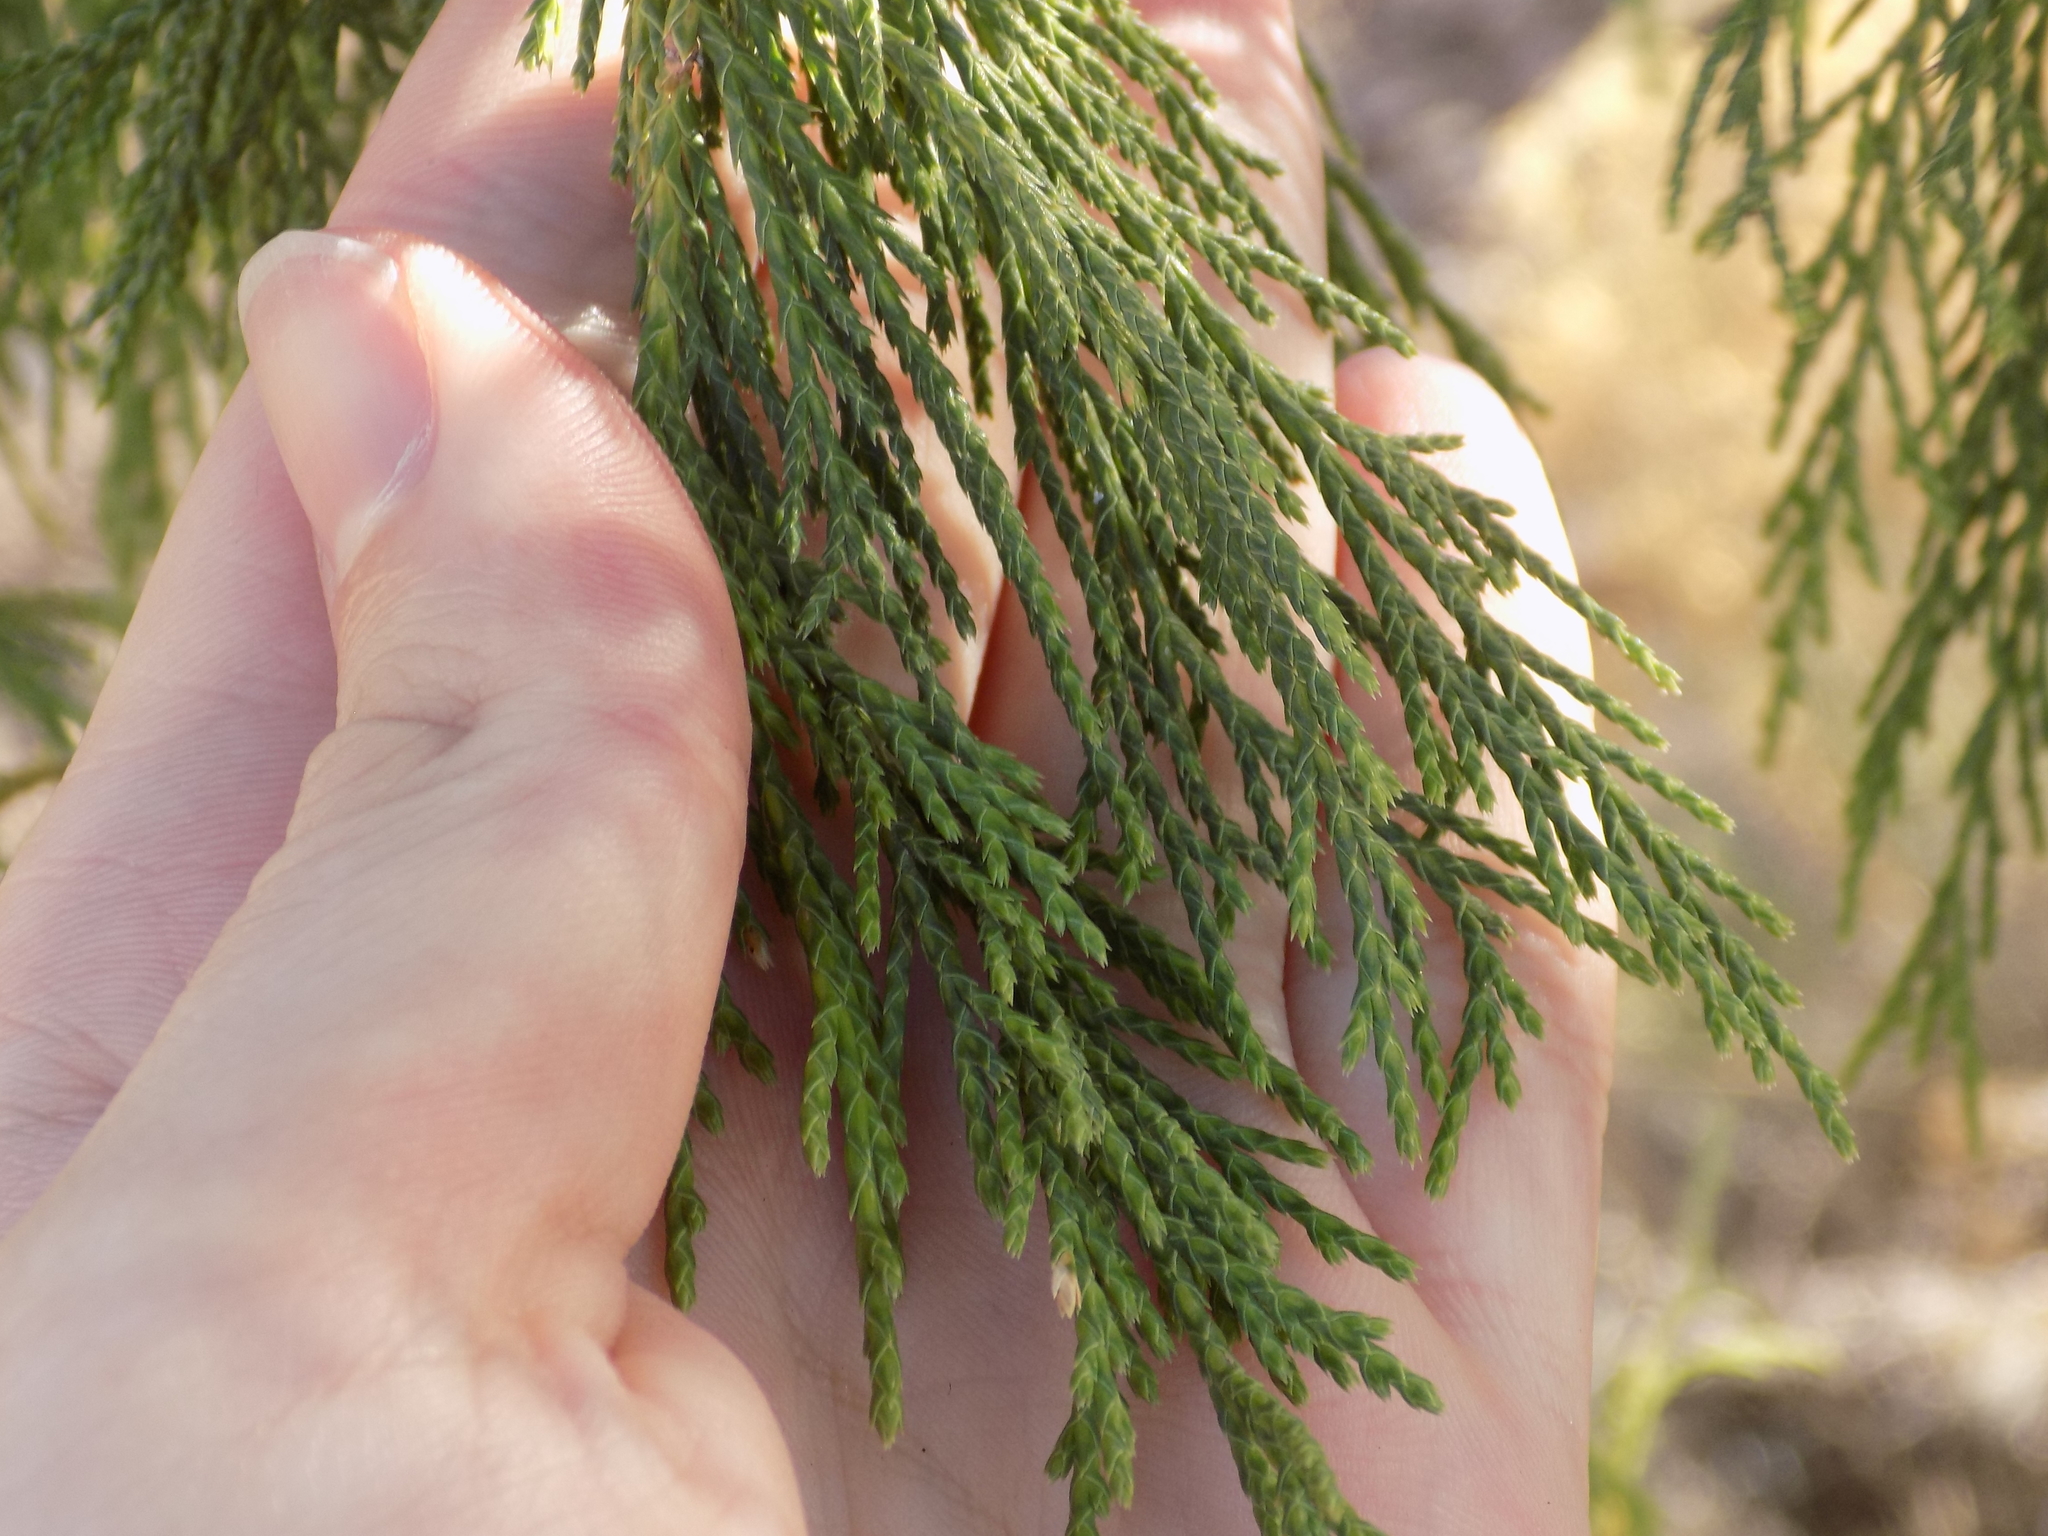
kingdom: Plantae
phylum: Tracheophyta
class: Pinopsida
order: Pinales
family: Cupressaceae
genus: Juniperus
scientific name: Juniperus flaccida
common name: Drooping juniper
